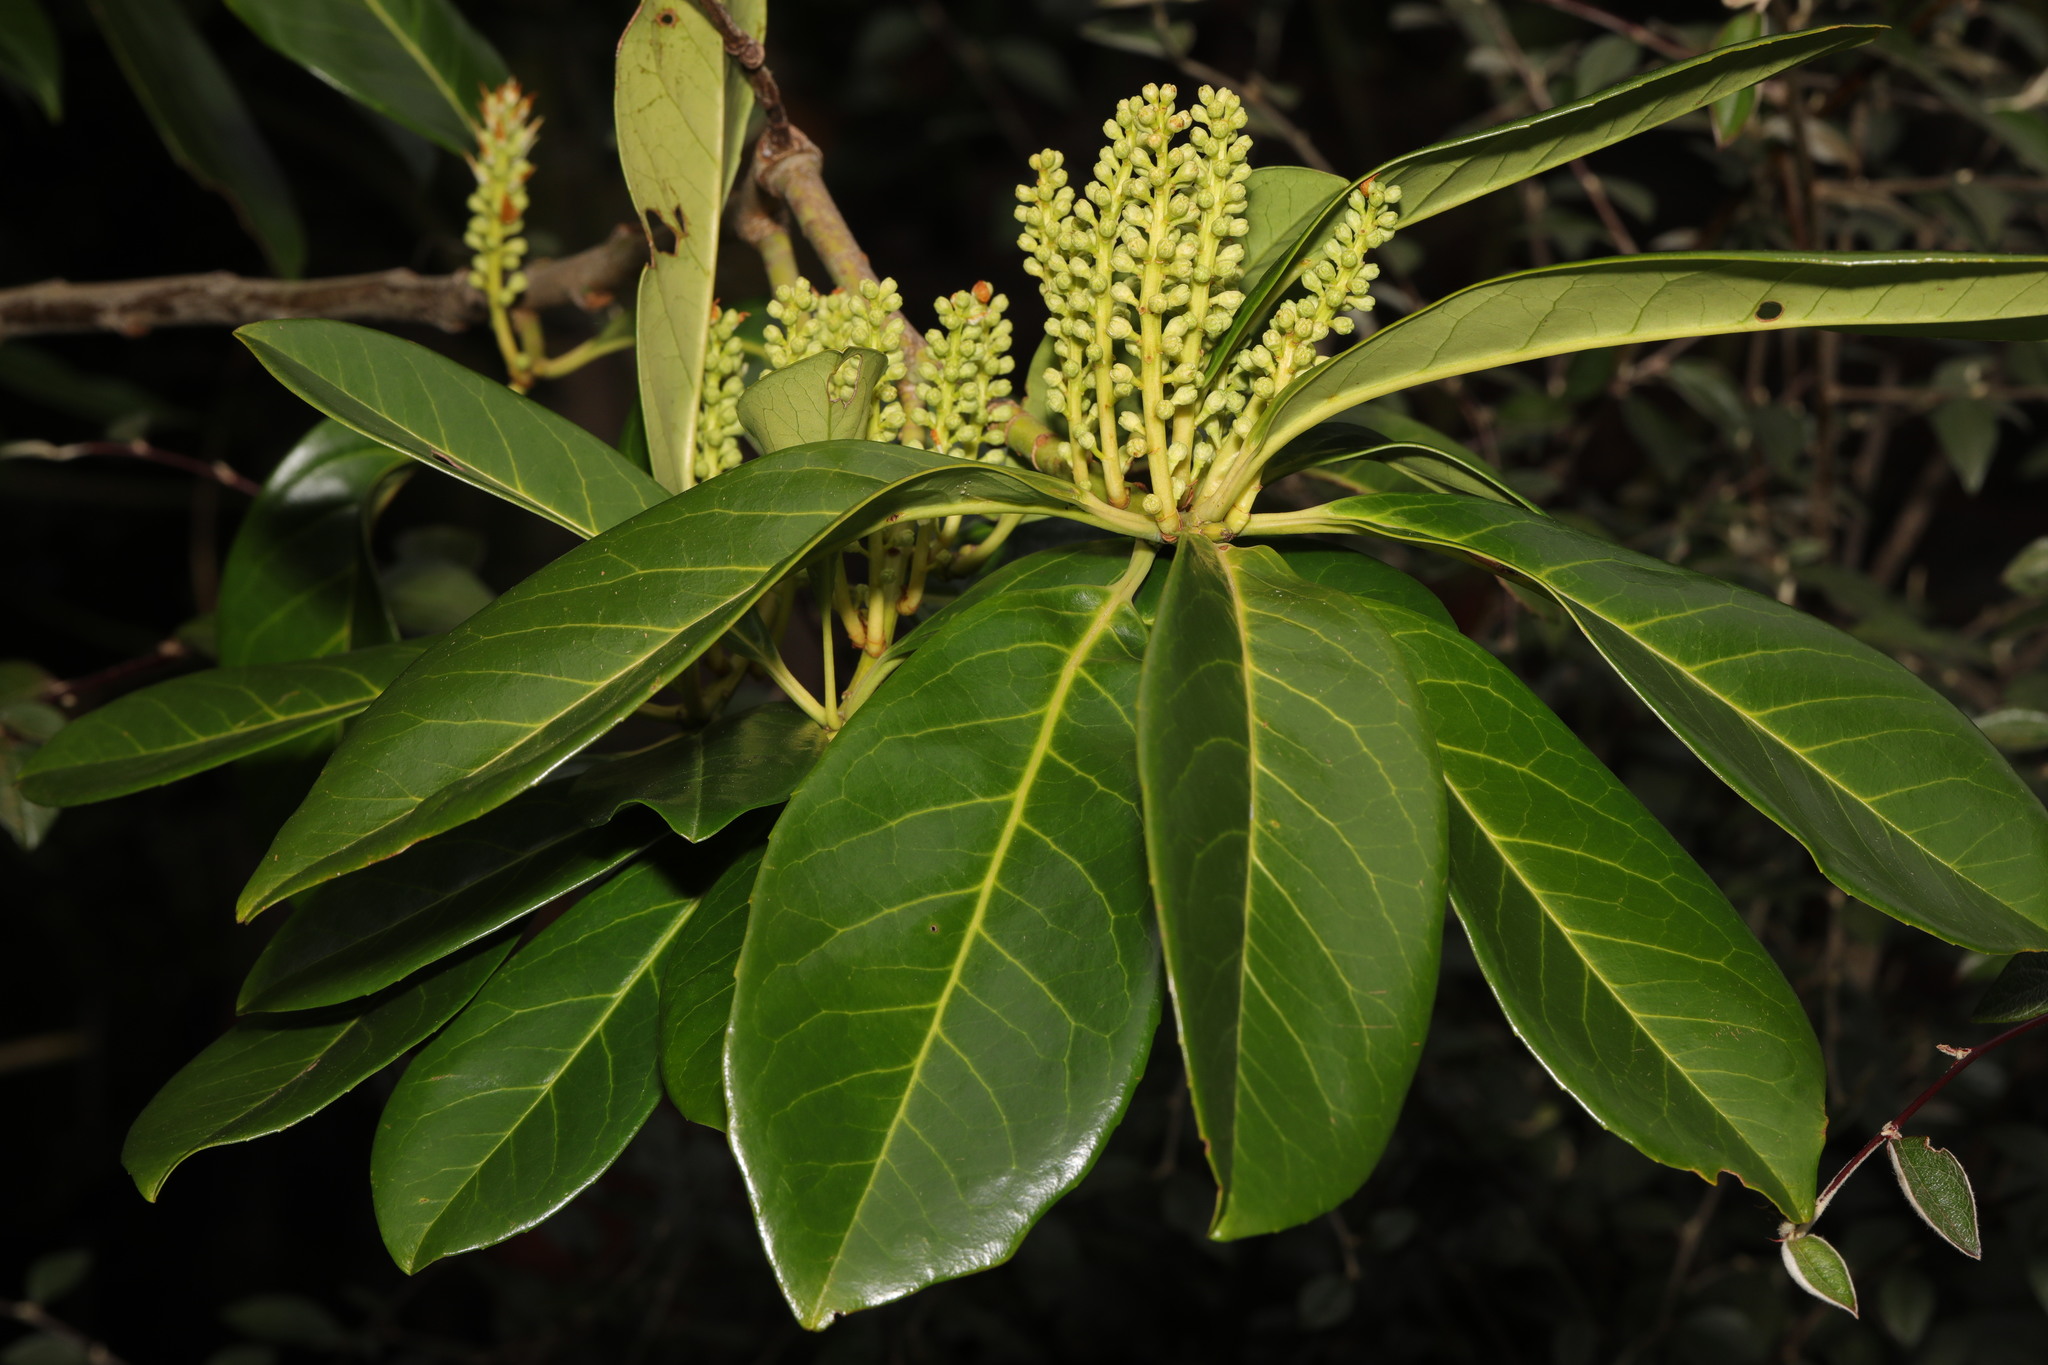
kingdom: Plantae
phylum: Tracheophyta
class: Magnoliopsida
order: Rosales
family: Rosaceae
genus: Prunus
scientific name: Prunus laurocerasus
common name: Cherry laurel
